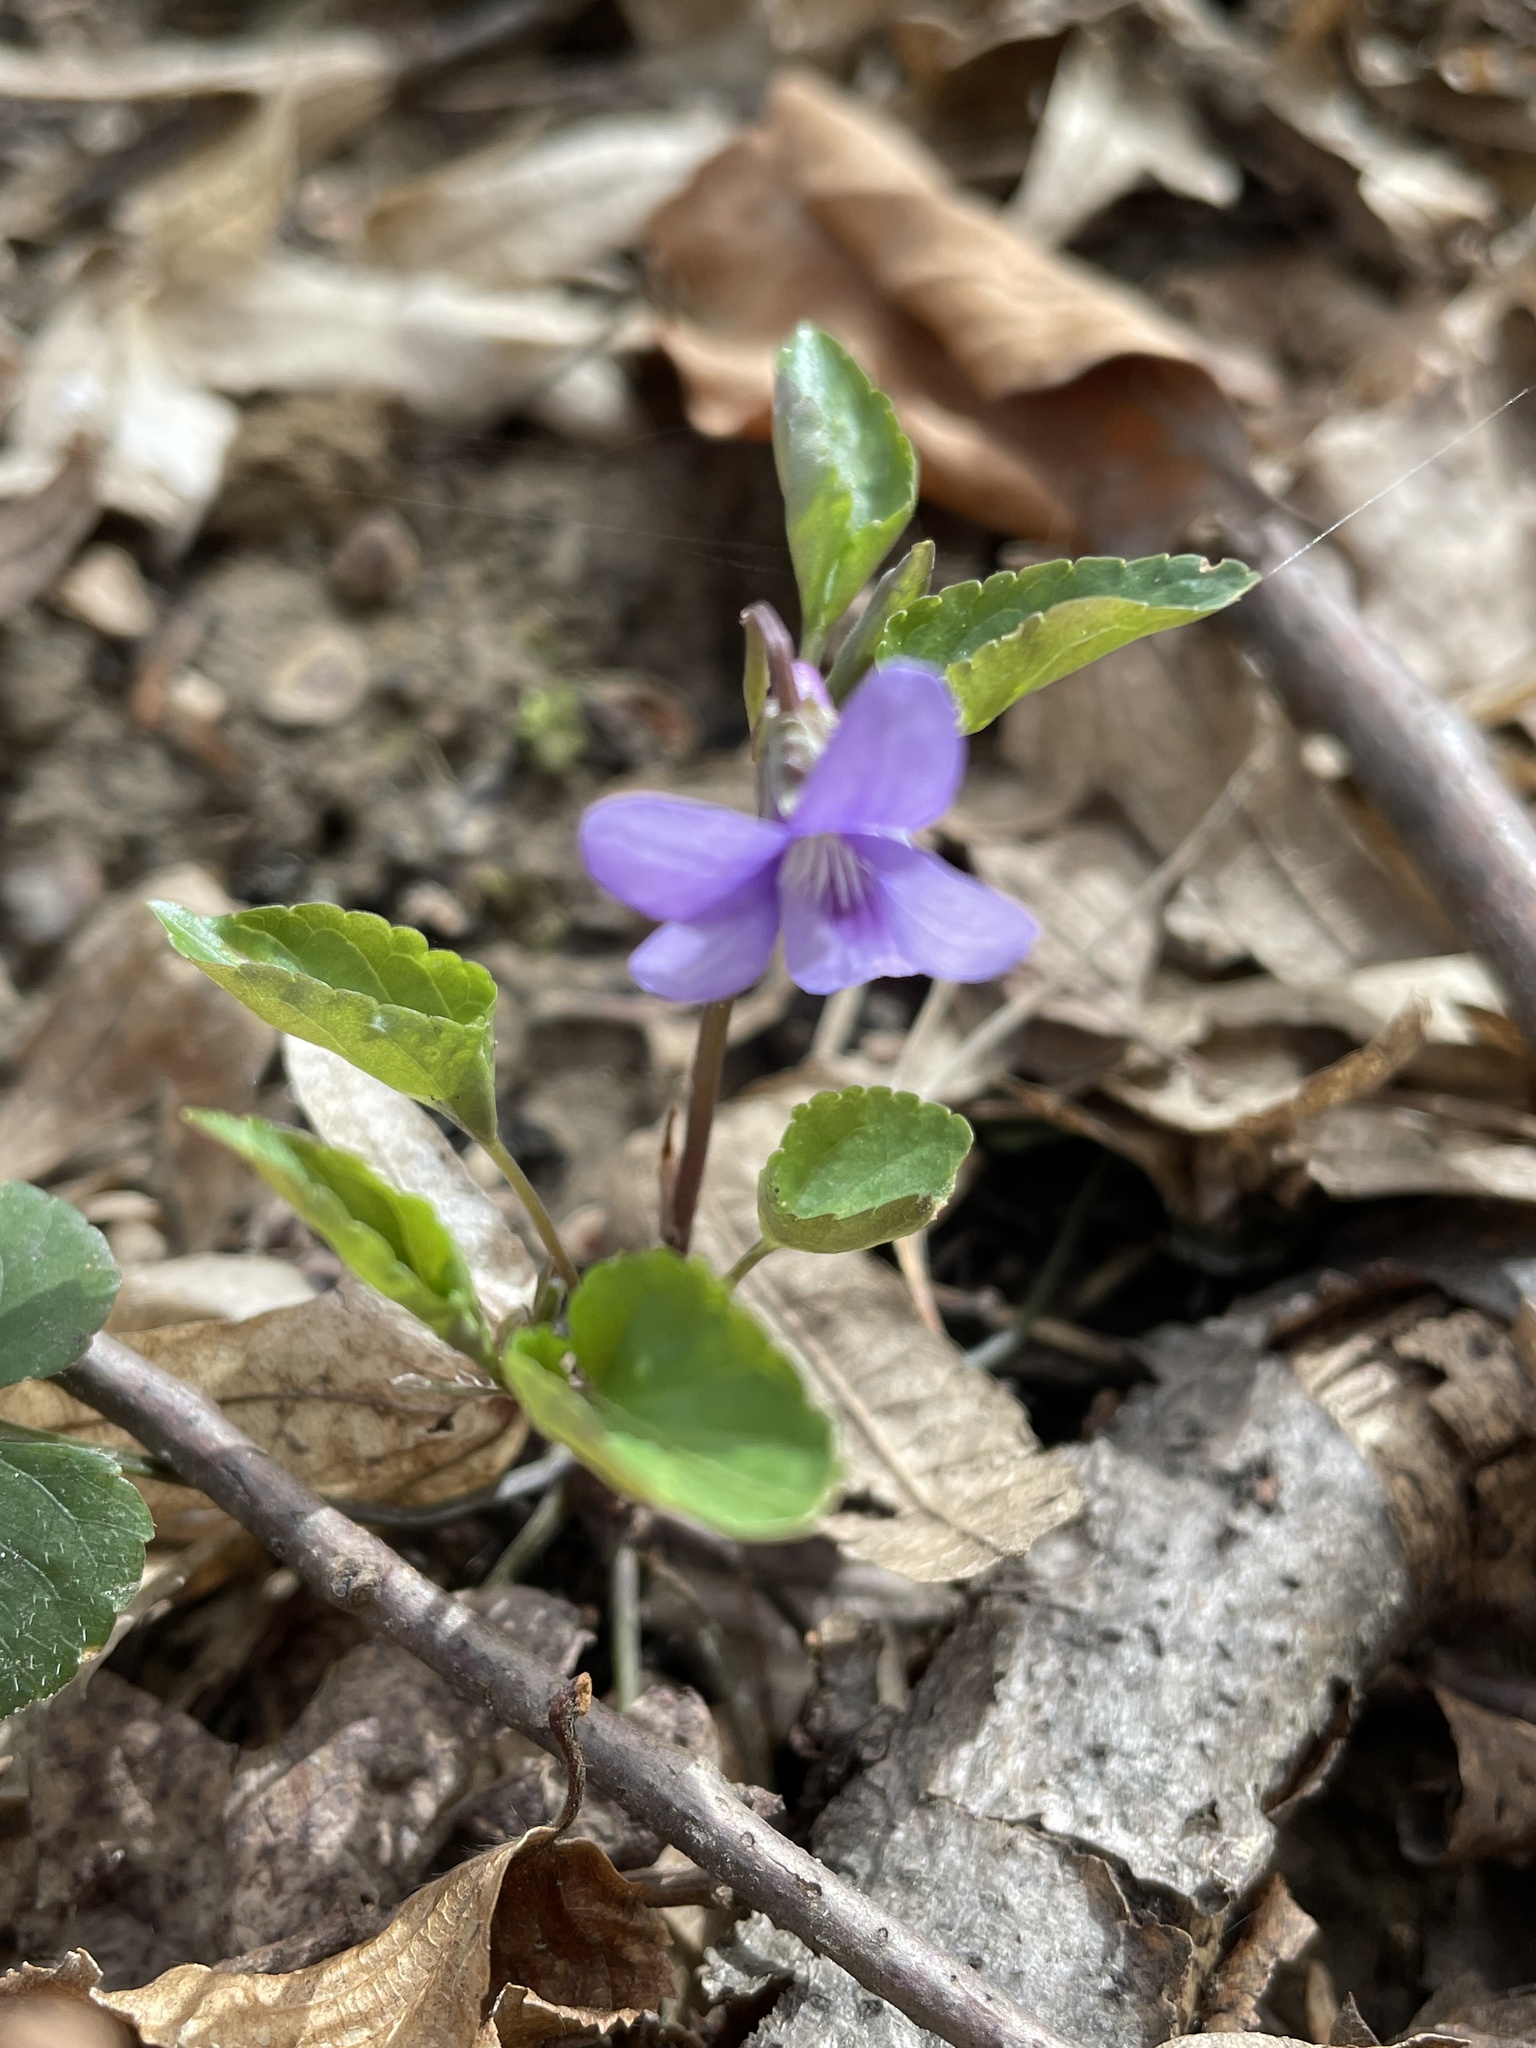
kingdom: Plantae
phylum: Tracheophyta
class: Magnoliopsida
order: Malpighiales
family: Violaceae
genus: Viola
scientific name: Viola reichenbachiana
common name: Early dog-violet
